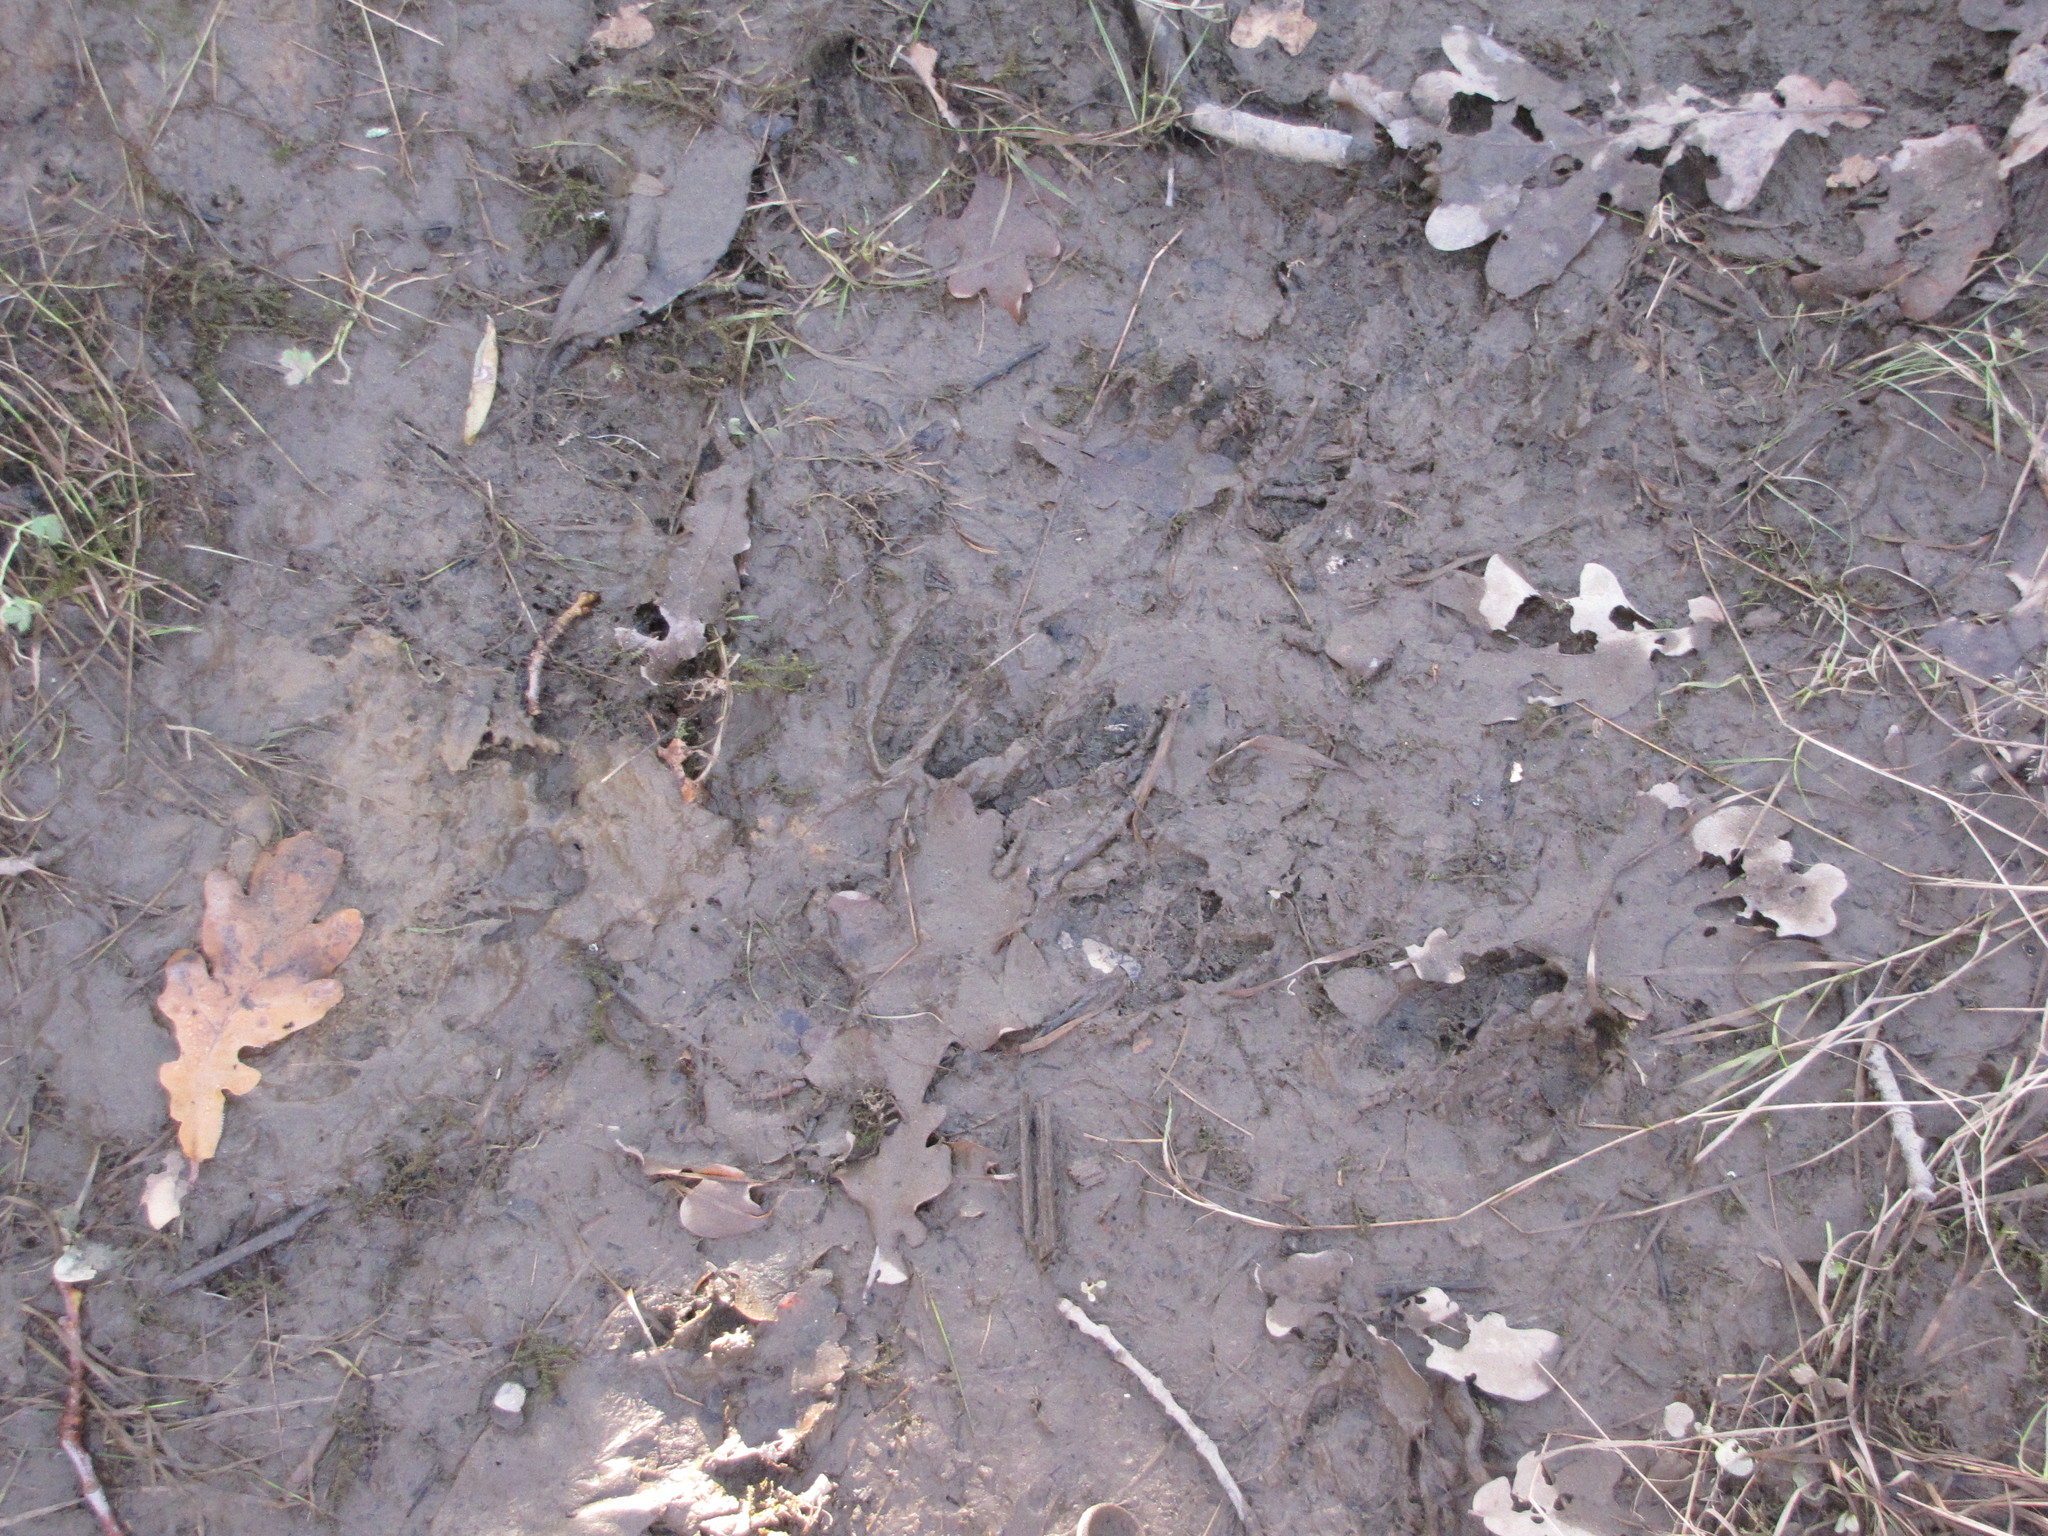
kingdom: Animalia
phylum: Chordata
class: Mammalia
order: Artiodactyla
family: Cervidae
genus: Odocoileus
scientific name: Odocoileus hemionus
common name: Mule deer
